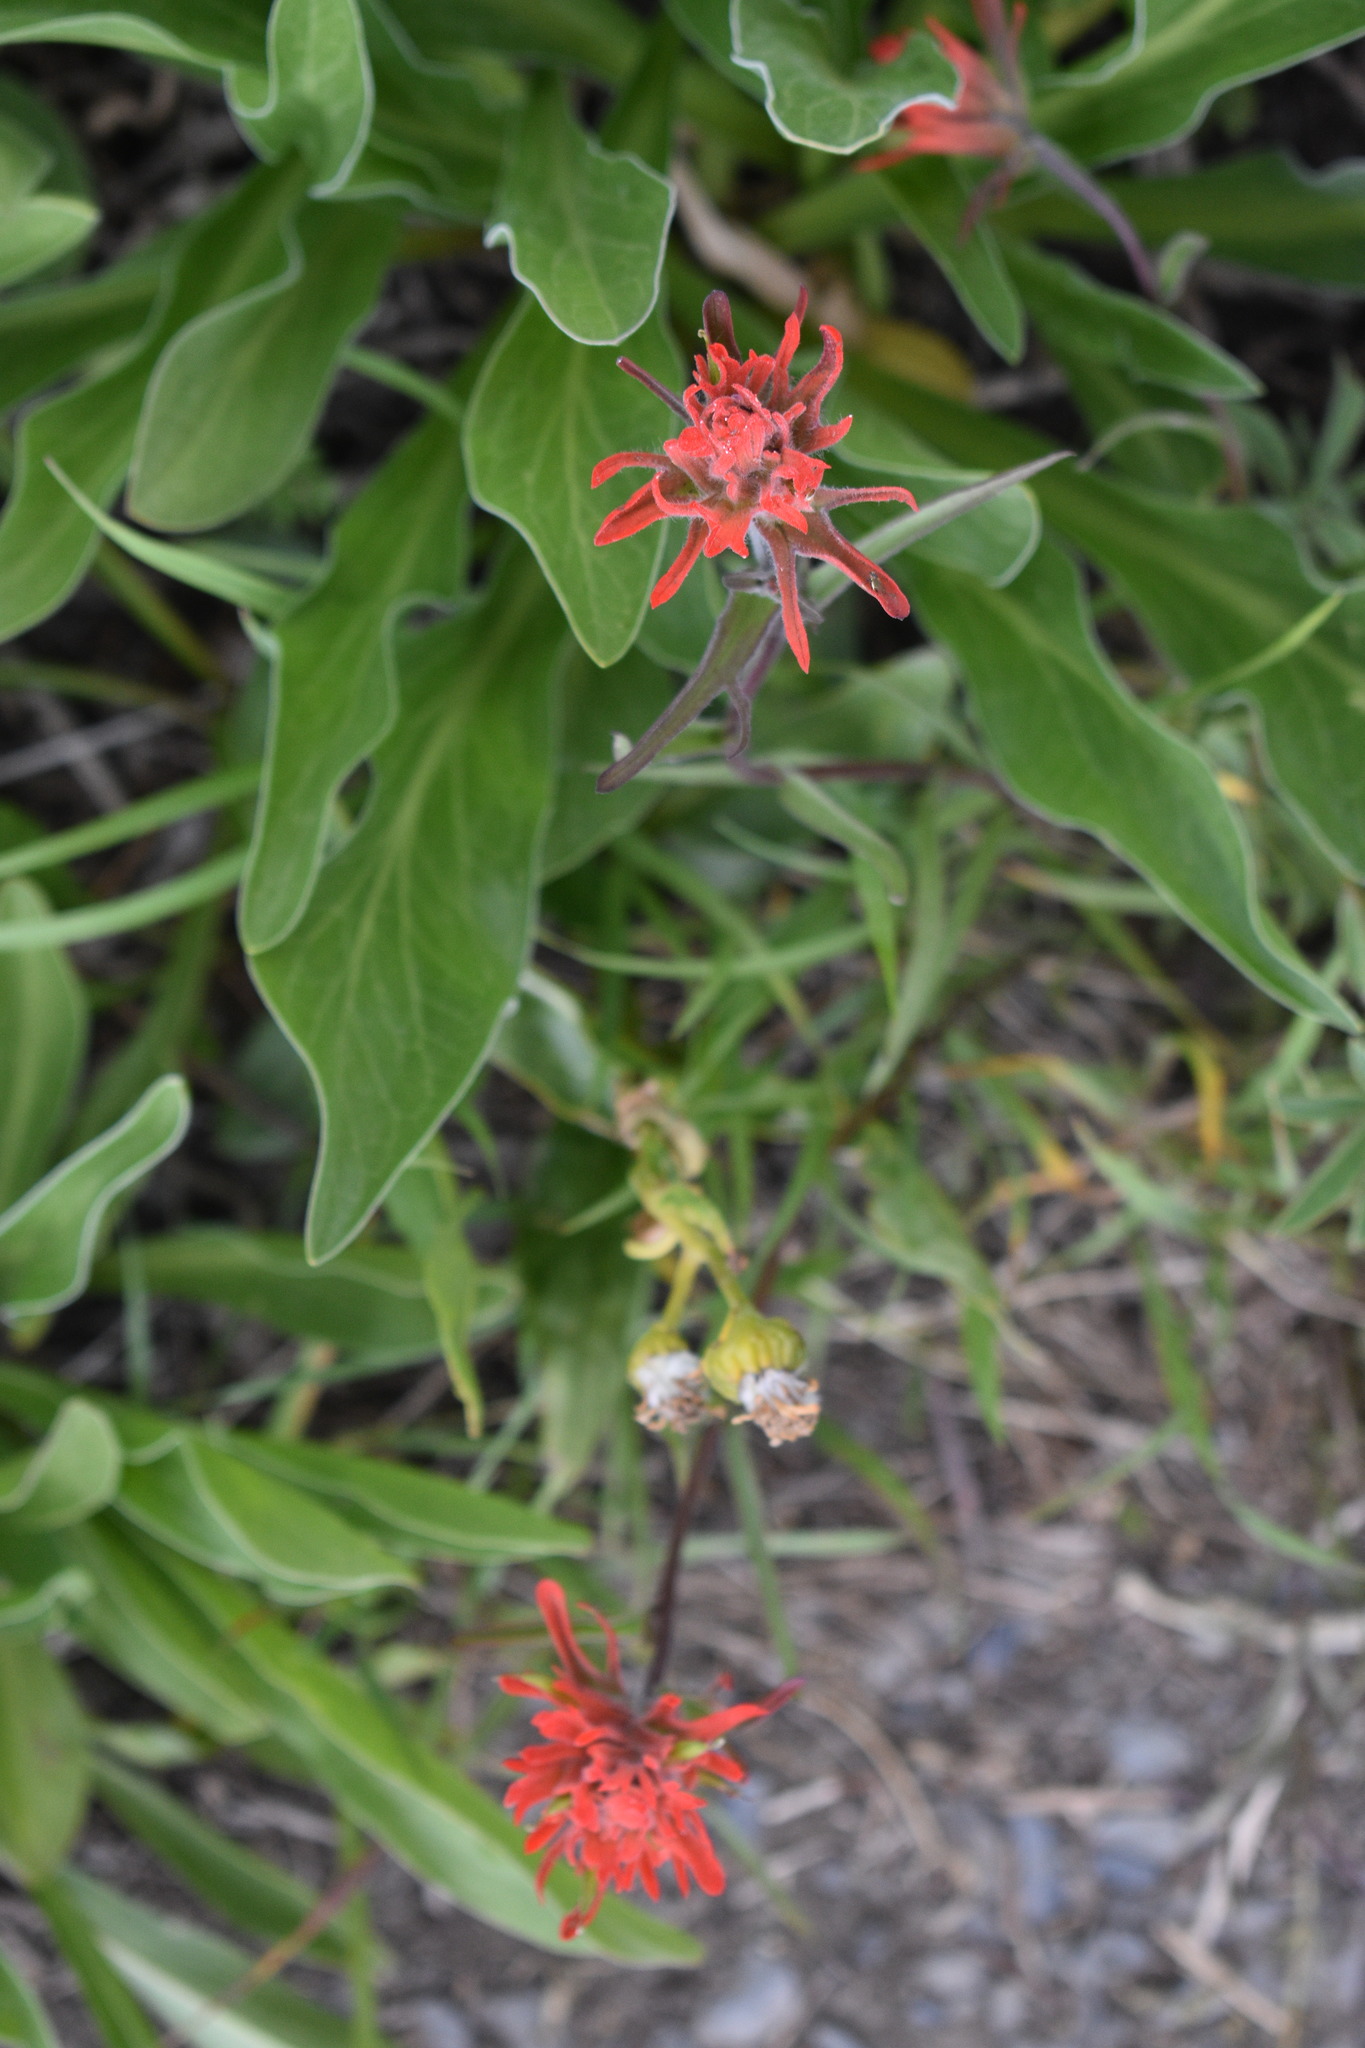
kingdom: Plantae
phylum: Tracheophyta
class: Magnoliopsida
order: Lamiales
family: Orobanchaceae
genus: Castilleja
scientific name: Castilleja miniata
